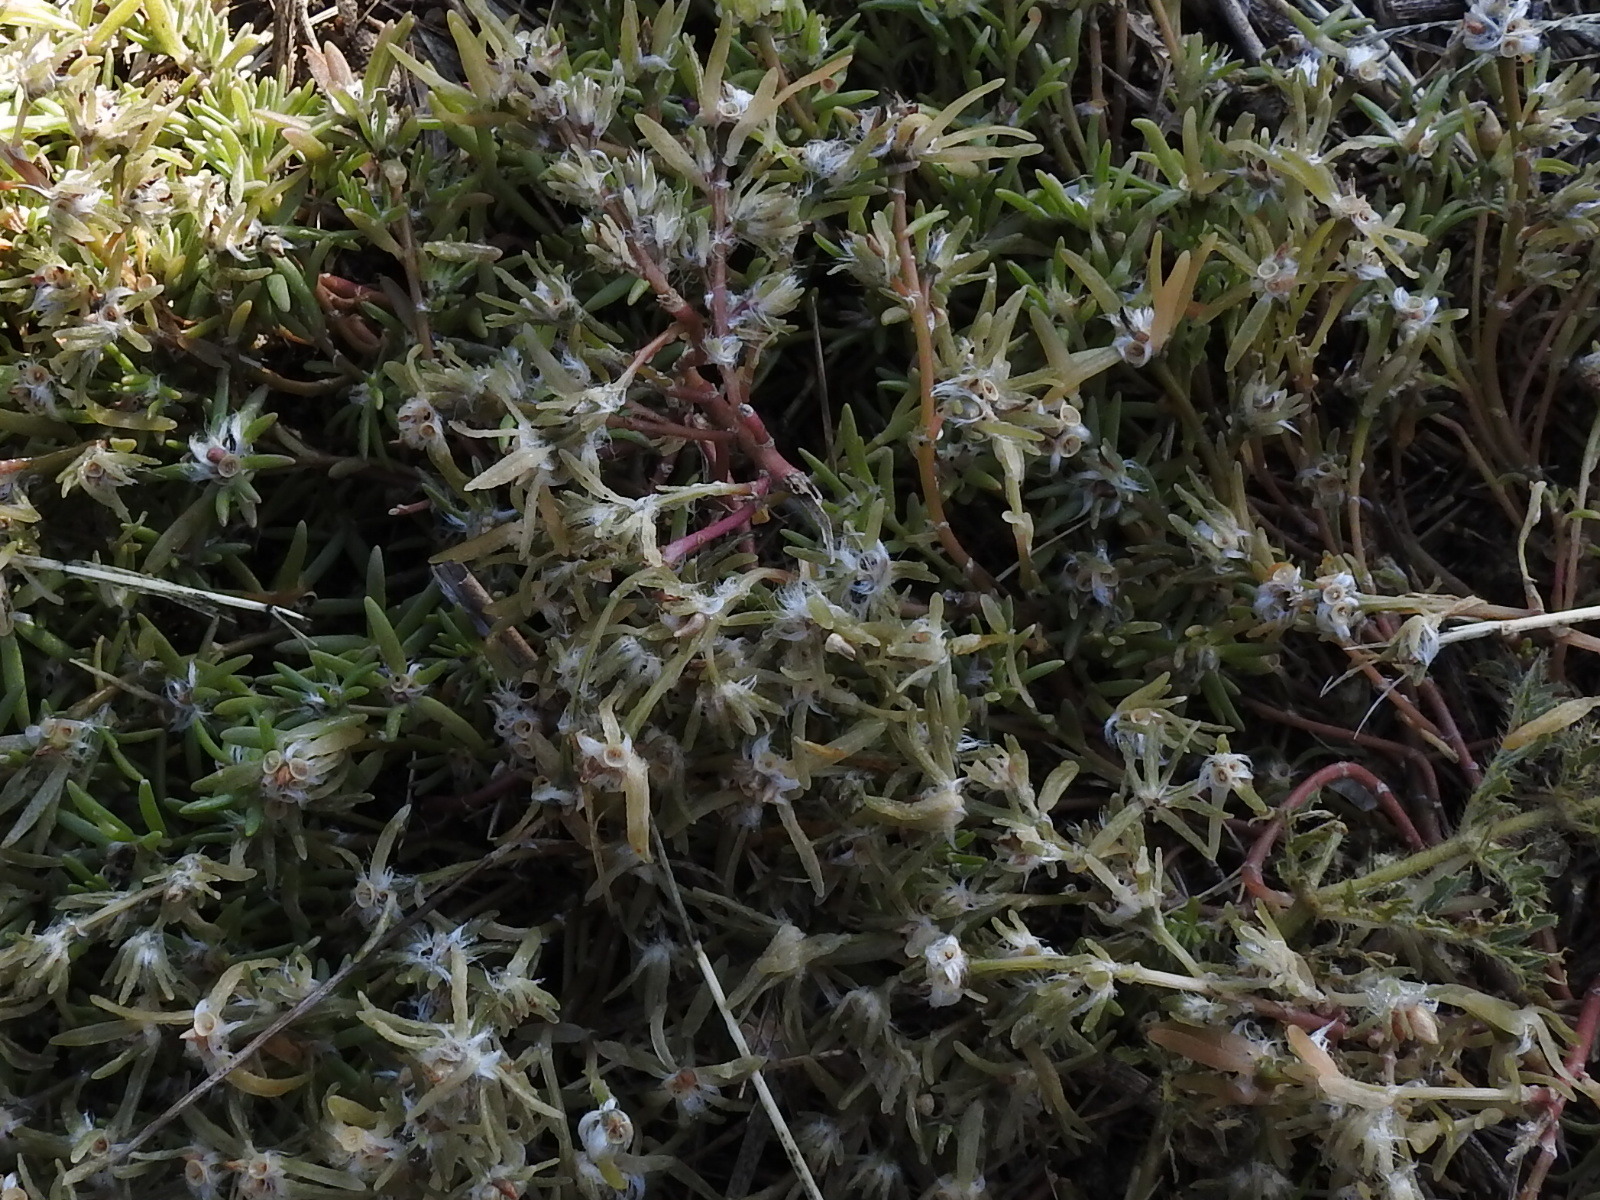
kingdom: Plantae
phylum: Tracheophyta
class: Magnoliopsida
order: Caryophyllales
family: Portulacaceae
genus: Portulaca
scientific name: Portulaca pilosa
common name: Kiss me quick
